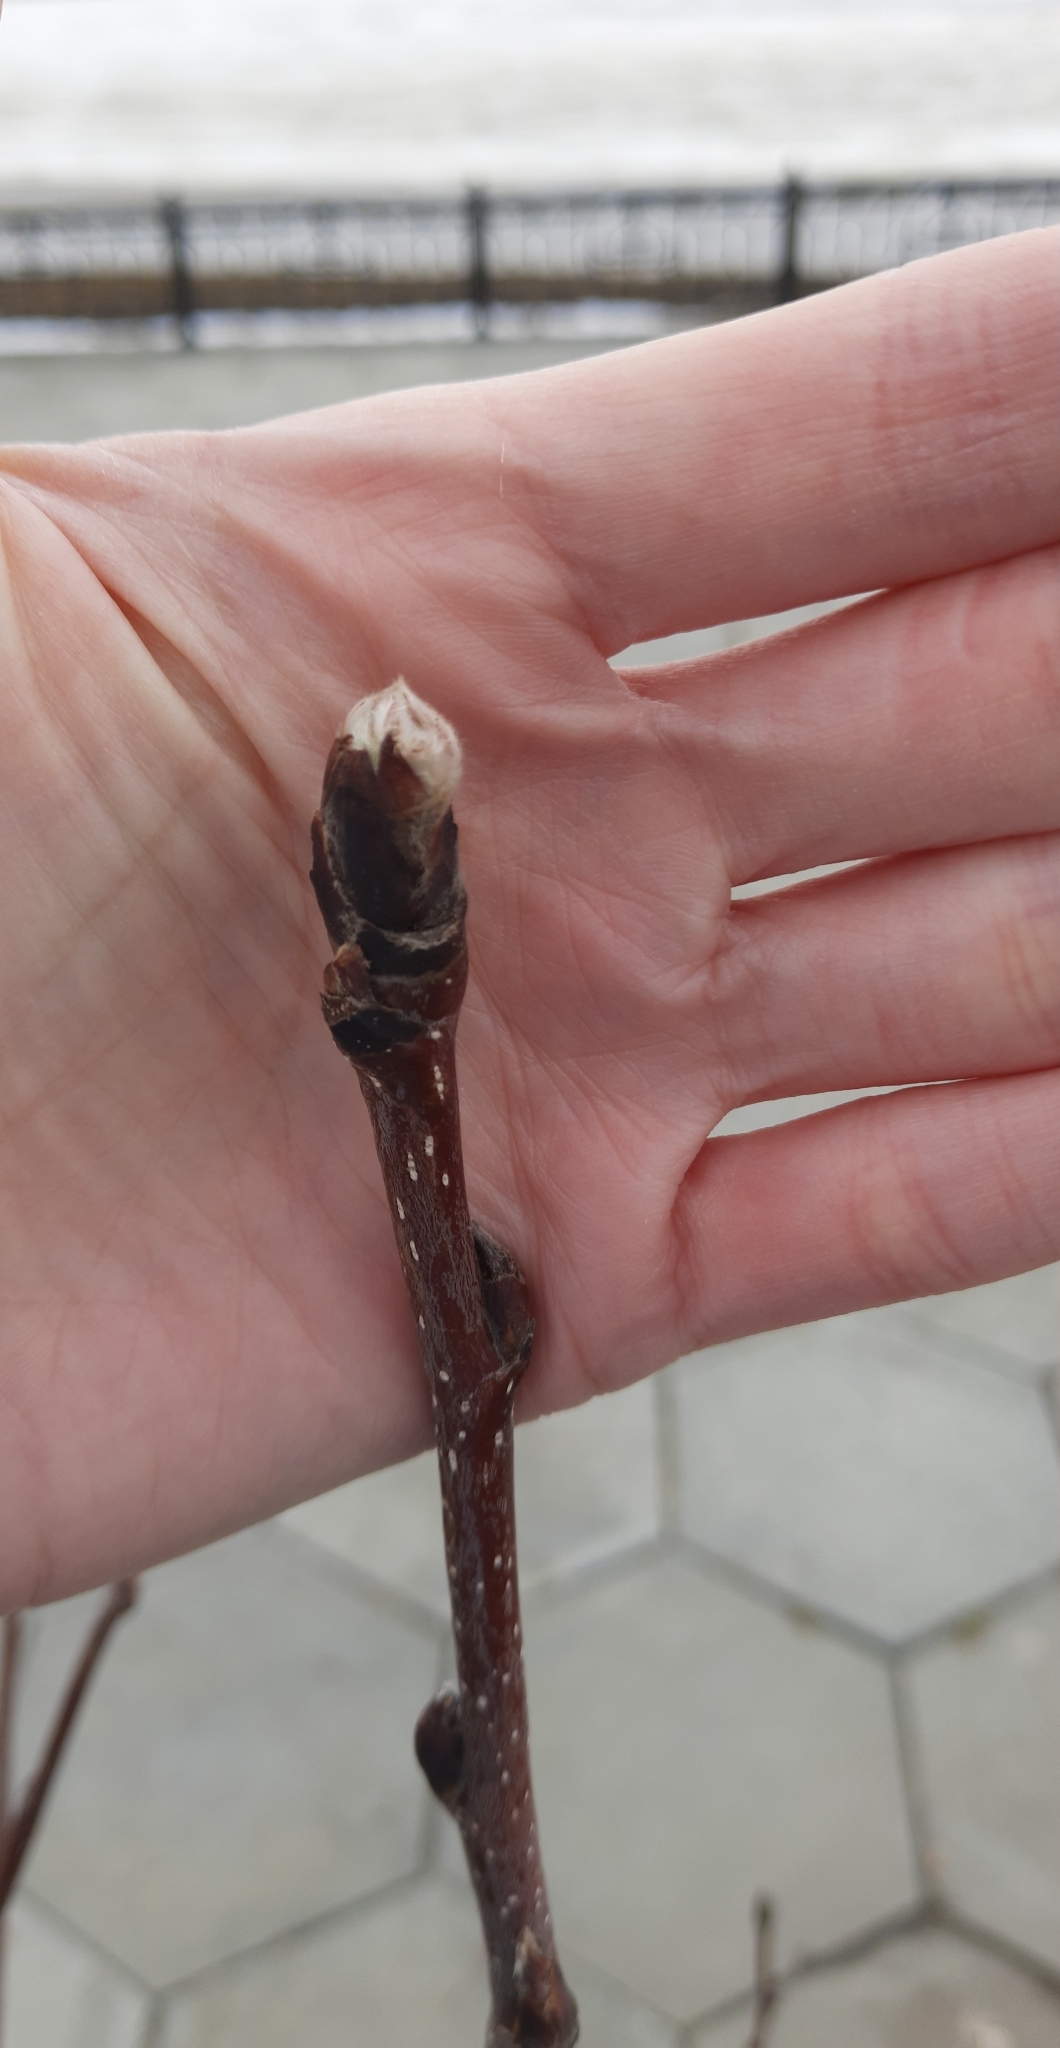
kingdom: Plantae
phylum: Tracheophyta
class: Magnoliopsida
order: Rosales
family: Rosaceae
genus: Sorbus
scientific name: Sorbus aucuparia
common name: Rowan
